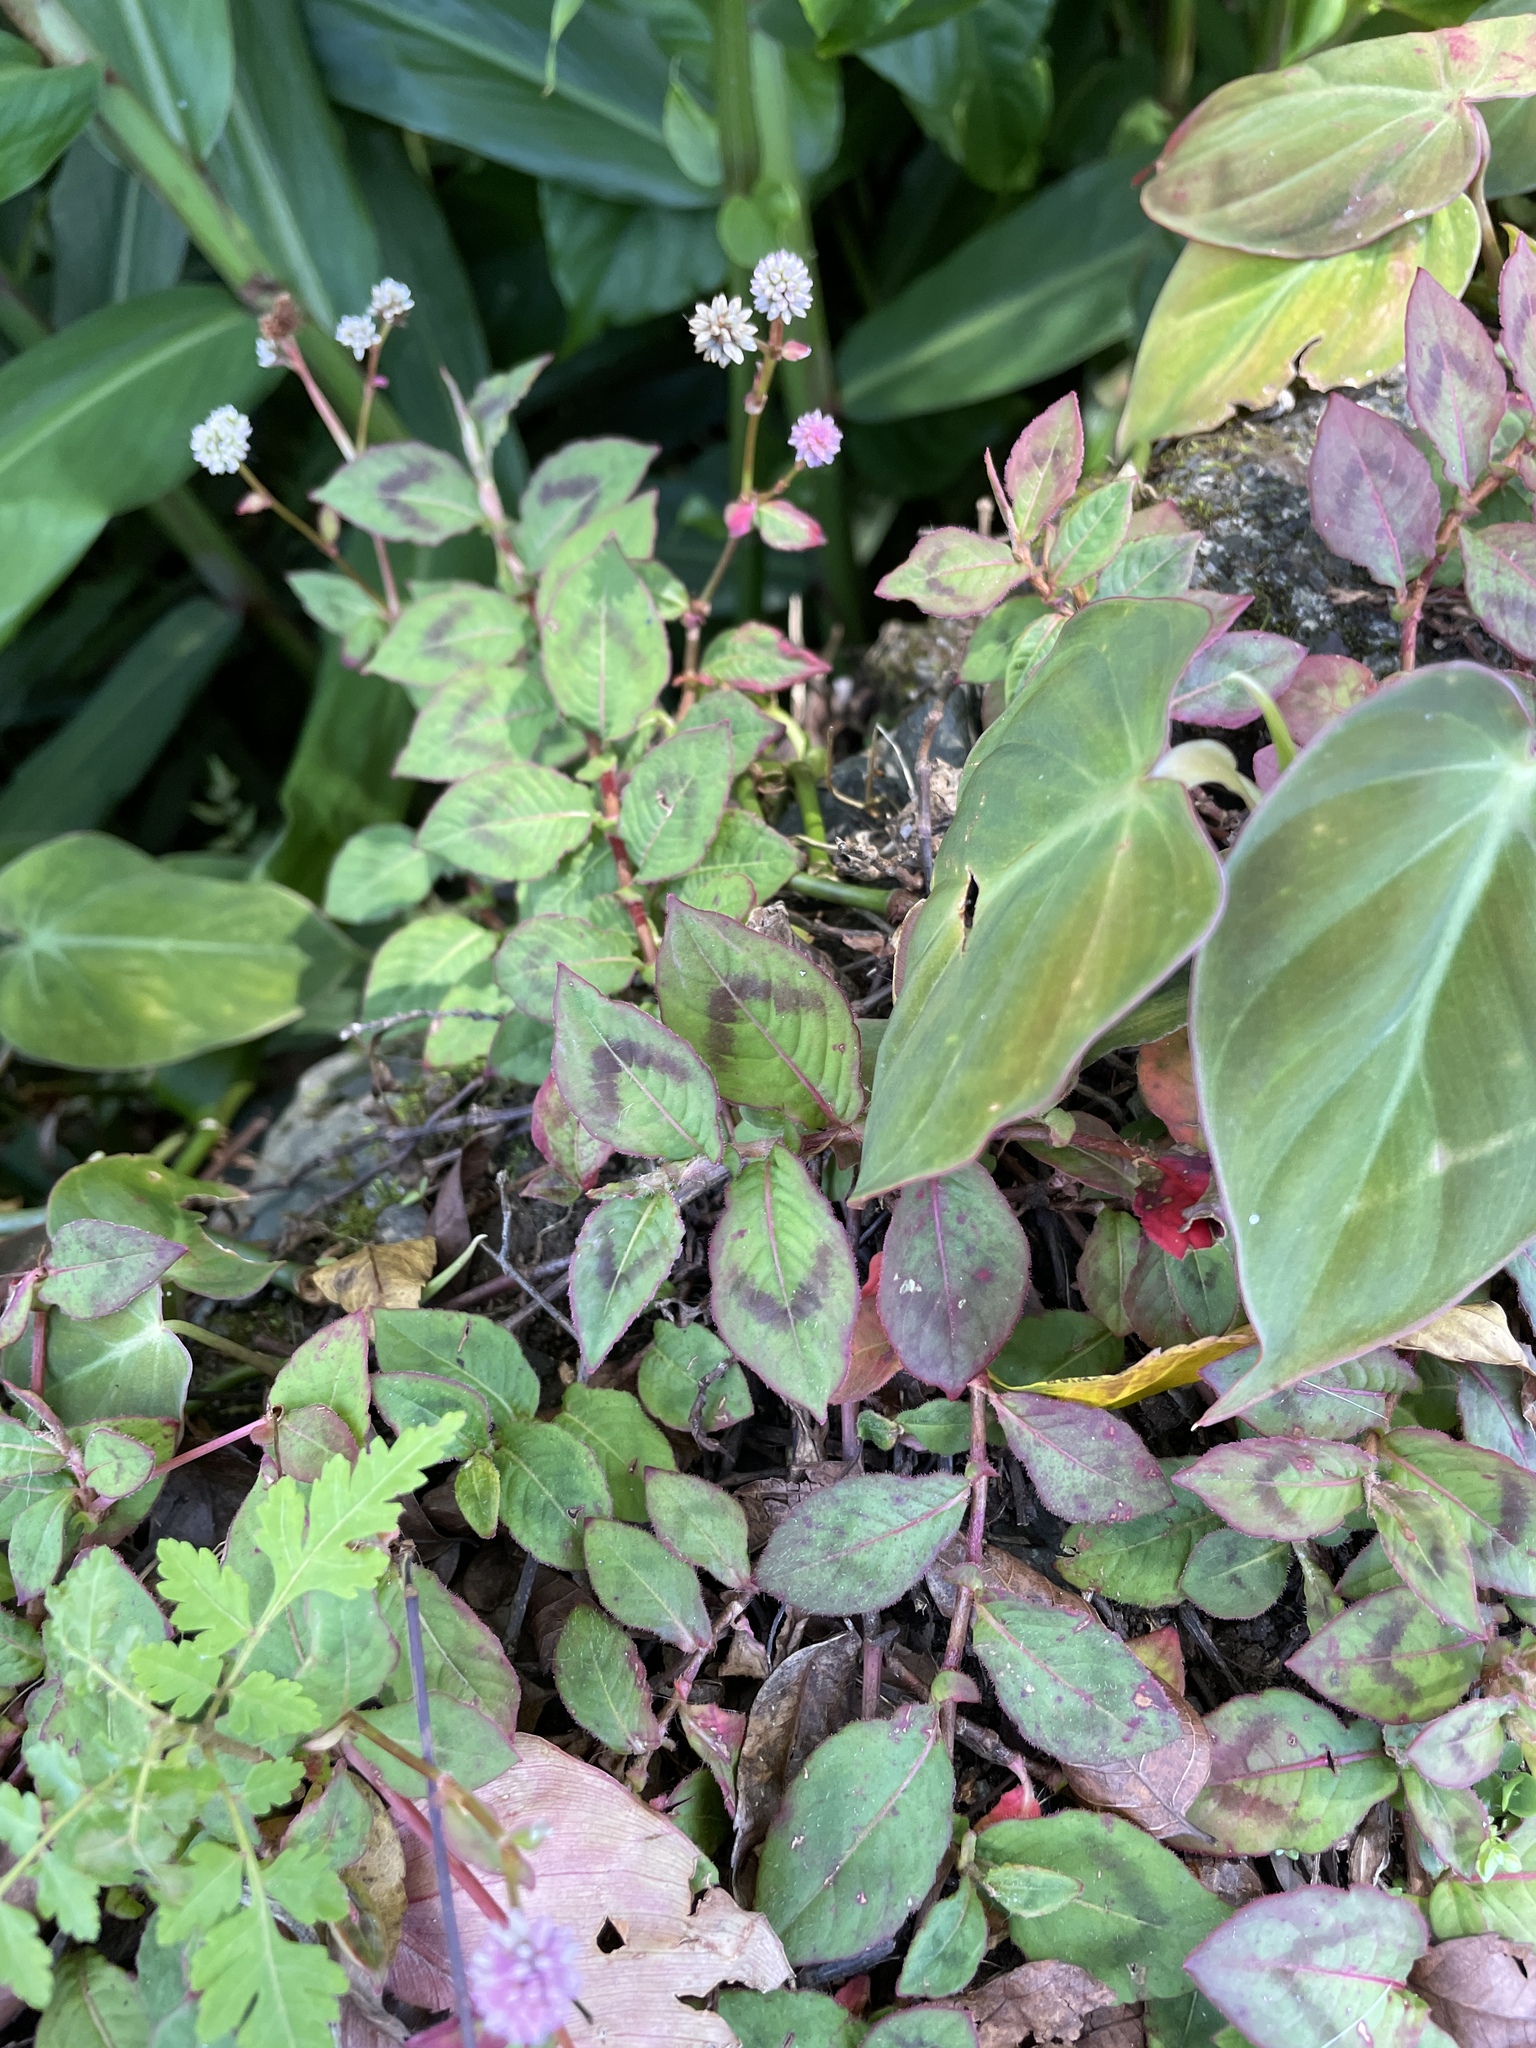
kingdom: Plantae
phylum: Tracheophyta
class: Magnoliopsida
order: Caryophyllales
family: Polygonaceae
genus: Persicaria
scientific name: Persicaria capitata
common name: Pinkhead smartweed
